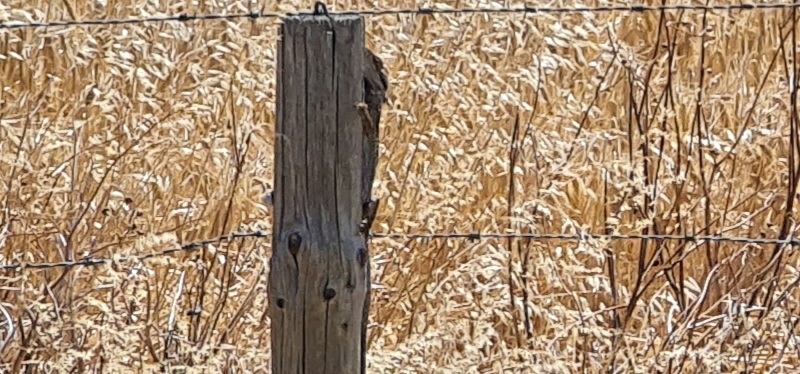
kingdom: Animalia
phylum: Chordata
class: Squamata
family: Agamidae
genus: Pogona
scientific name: Pogona barbata
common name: Bearded dragon
